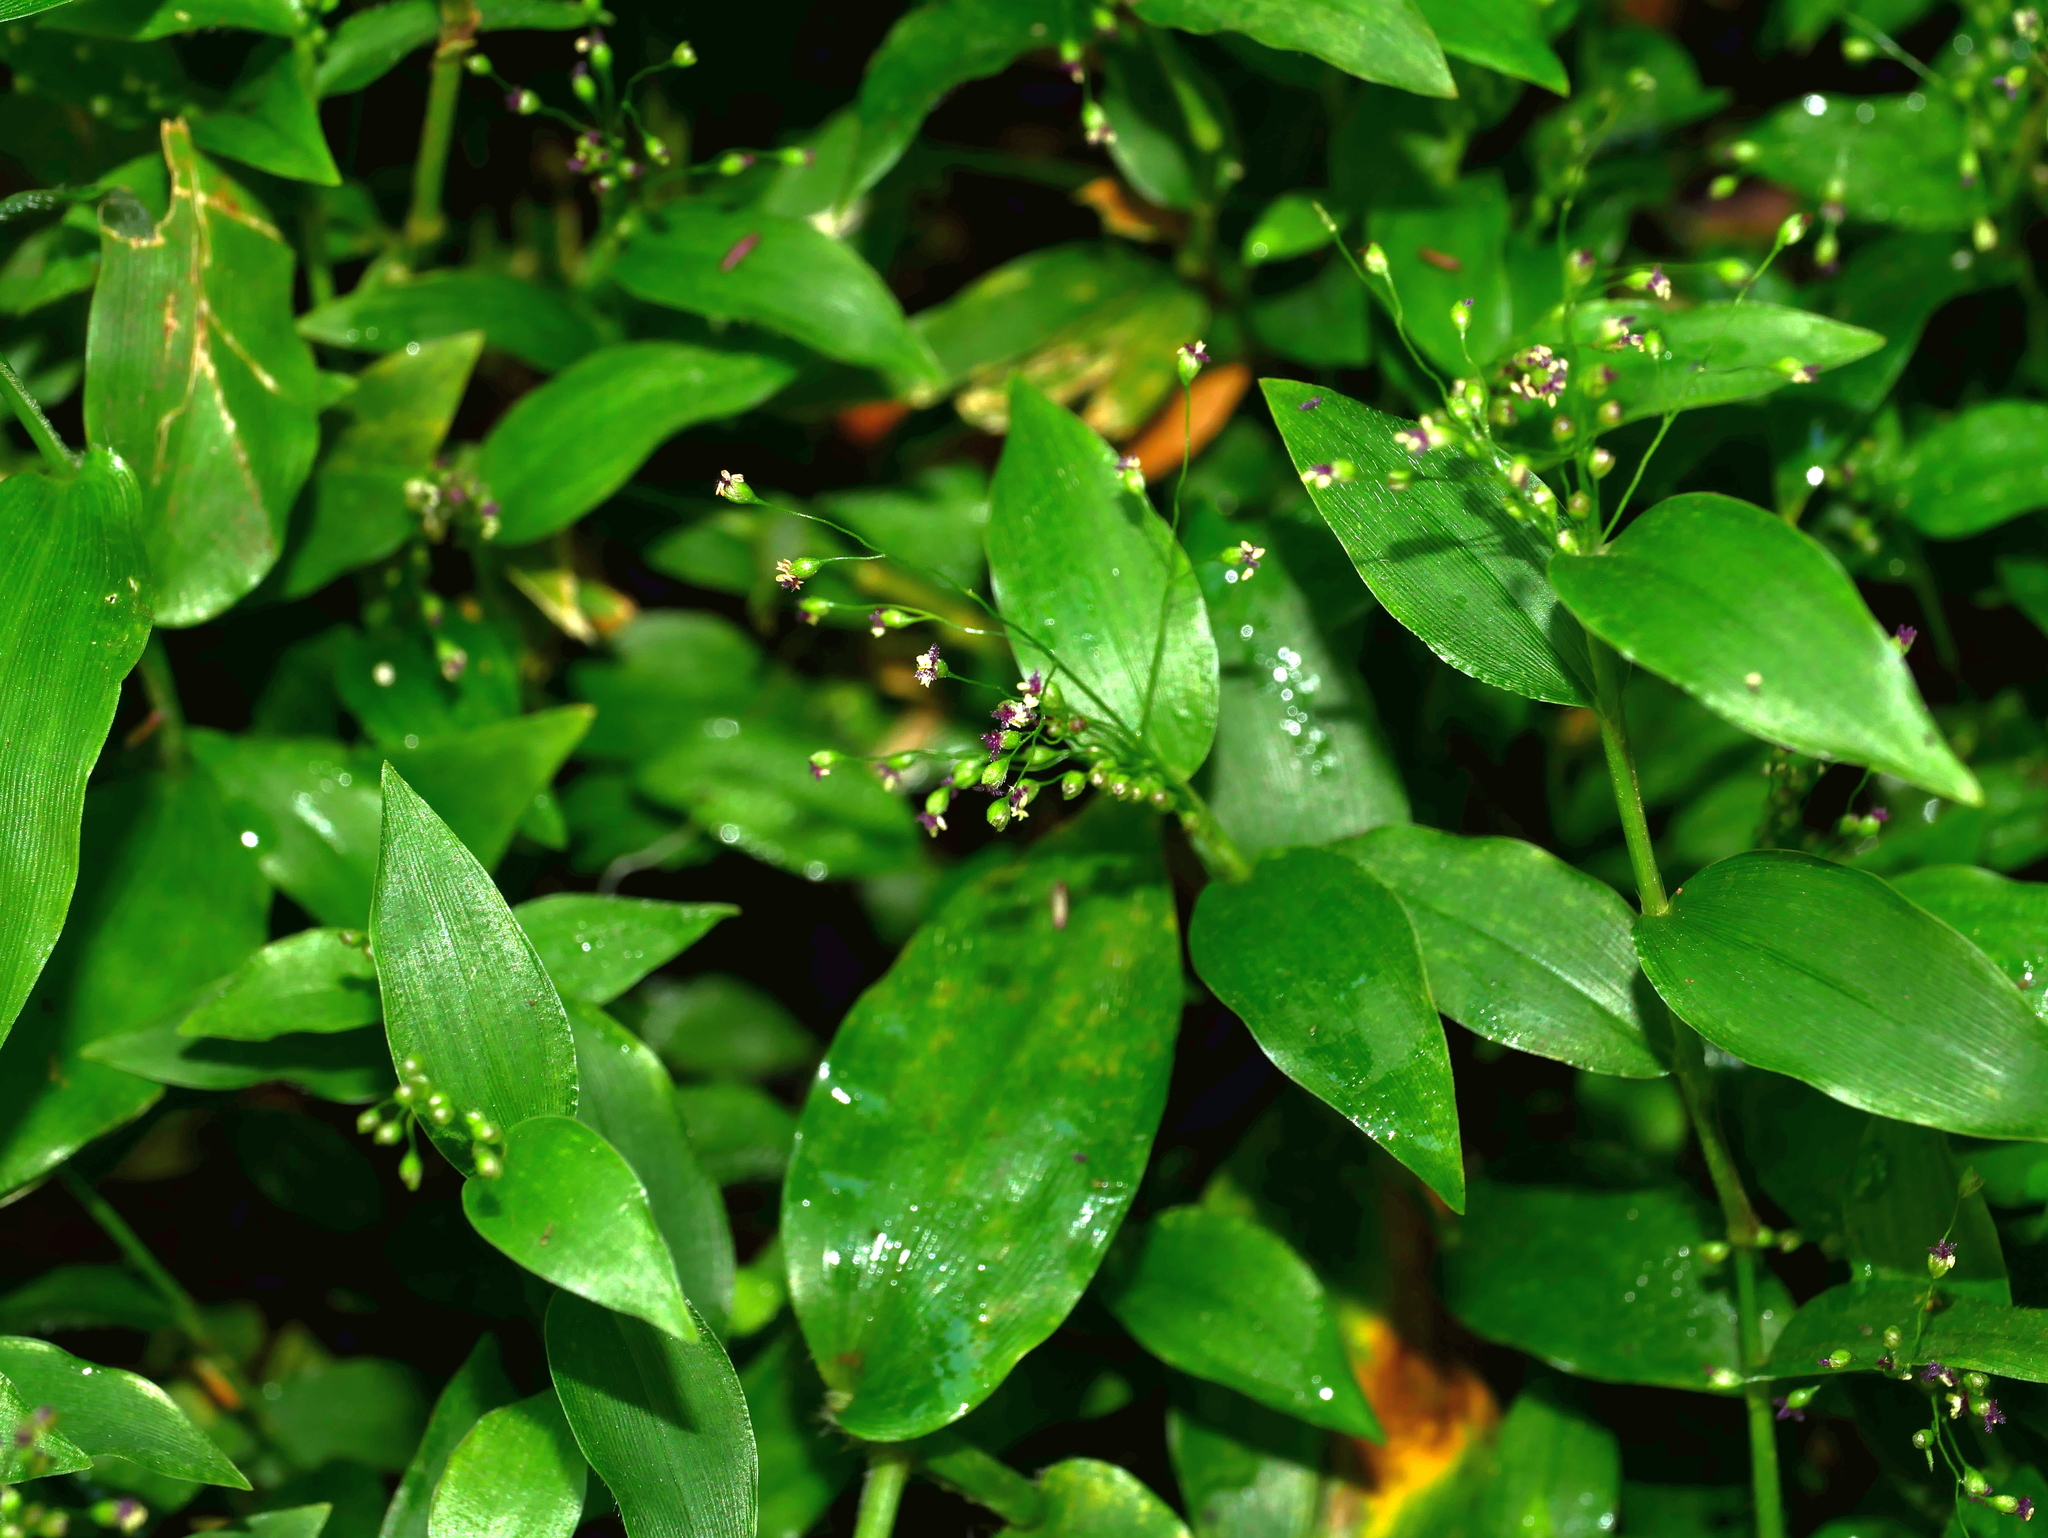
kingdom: Plantae
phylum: Tracheophyta
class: Liliopsida
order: Poales
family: Poaceae
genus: Isachne
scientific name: Isachne kunthiana
